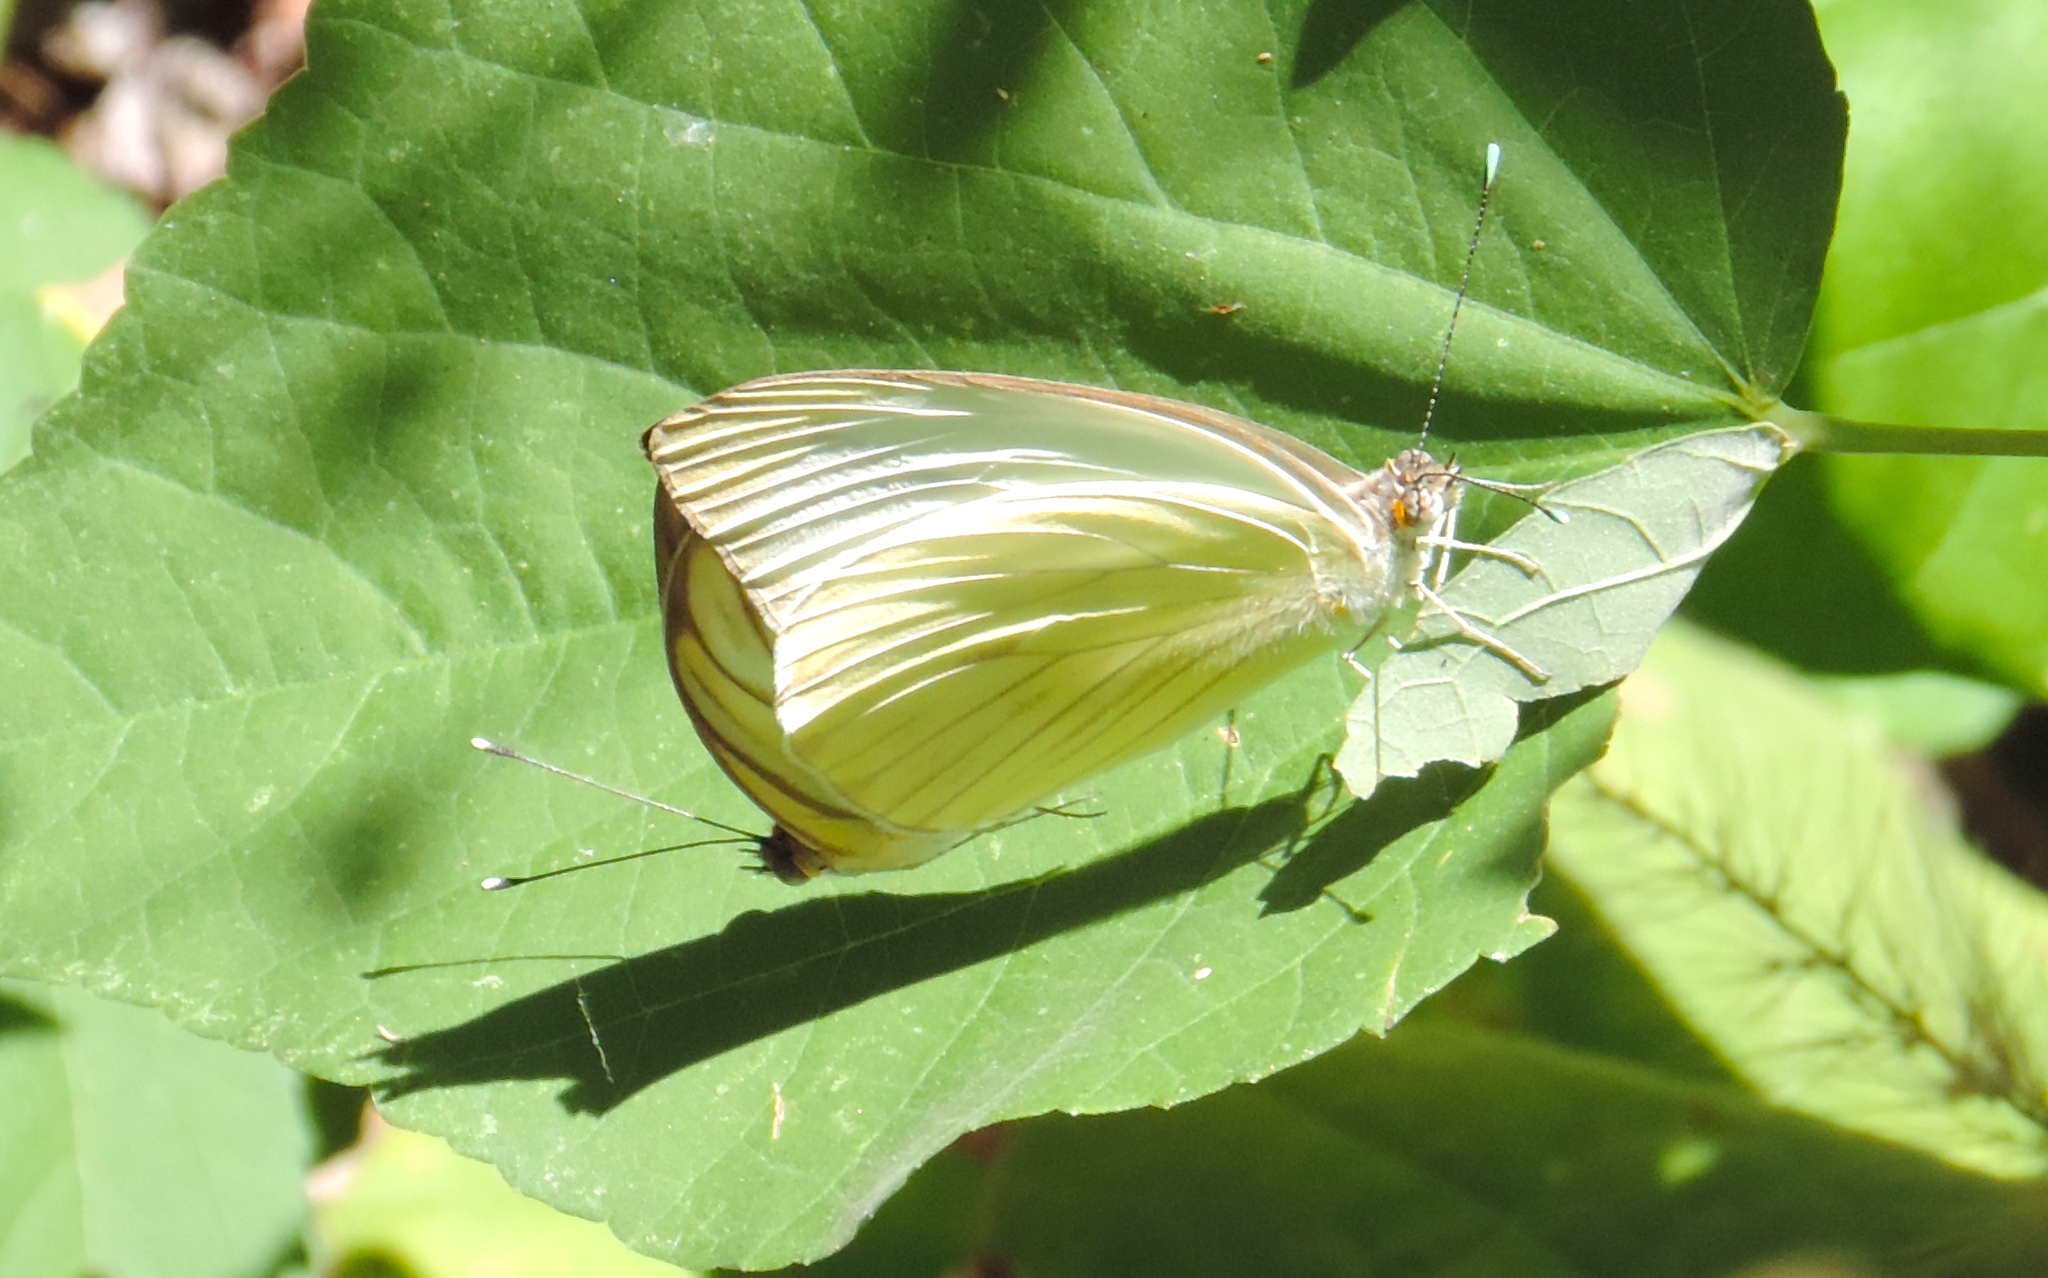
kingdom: Animalia
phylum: Arthropoda
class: Insecta
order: Lepidoptera
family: Pieridae
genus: Ascia
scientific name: Ascia monuste
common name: Great southern white
